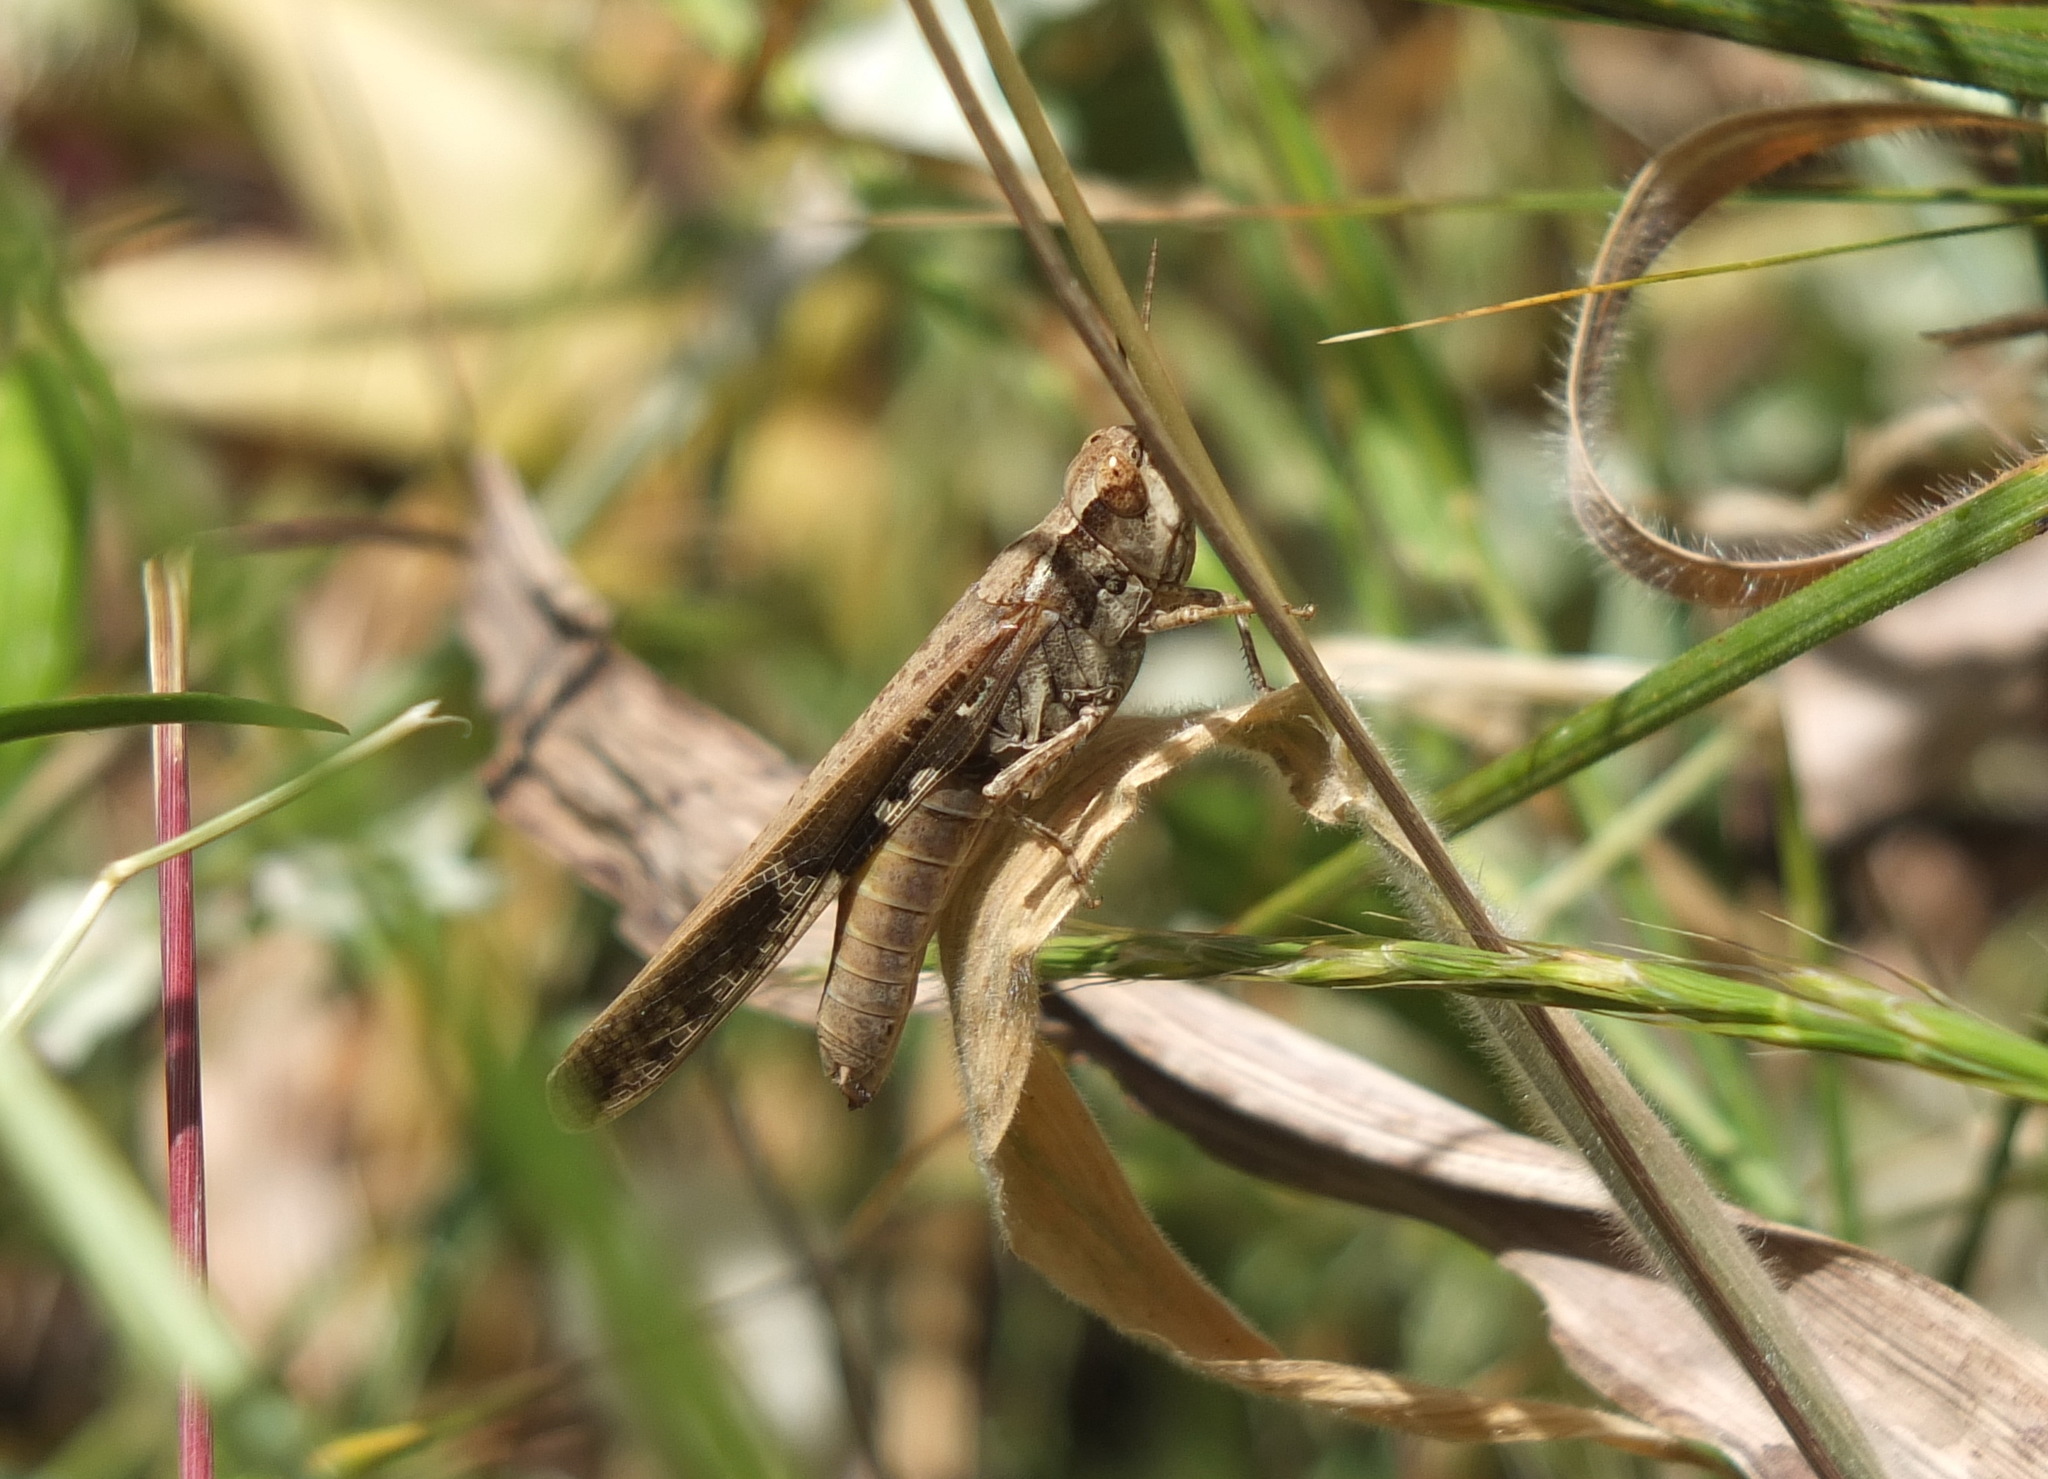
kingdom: Animalia
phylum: Arthropoda
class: Insecta
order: Orthoptera
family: Acrididae
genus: Aiolopus
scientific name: Aiolopus thalassinus
